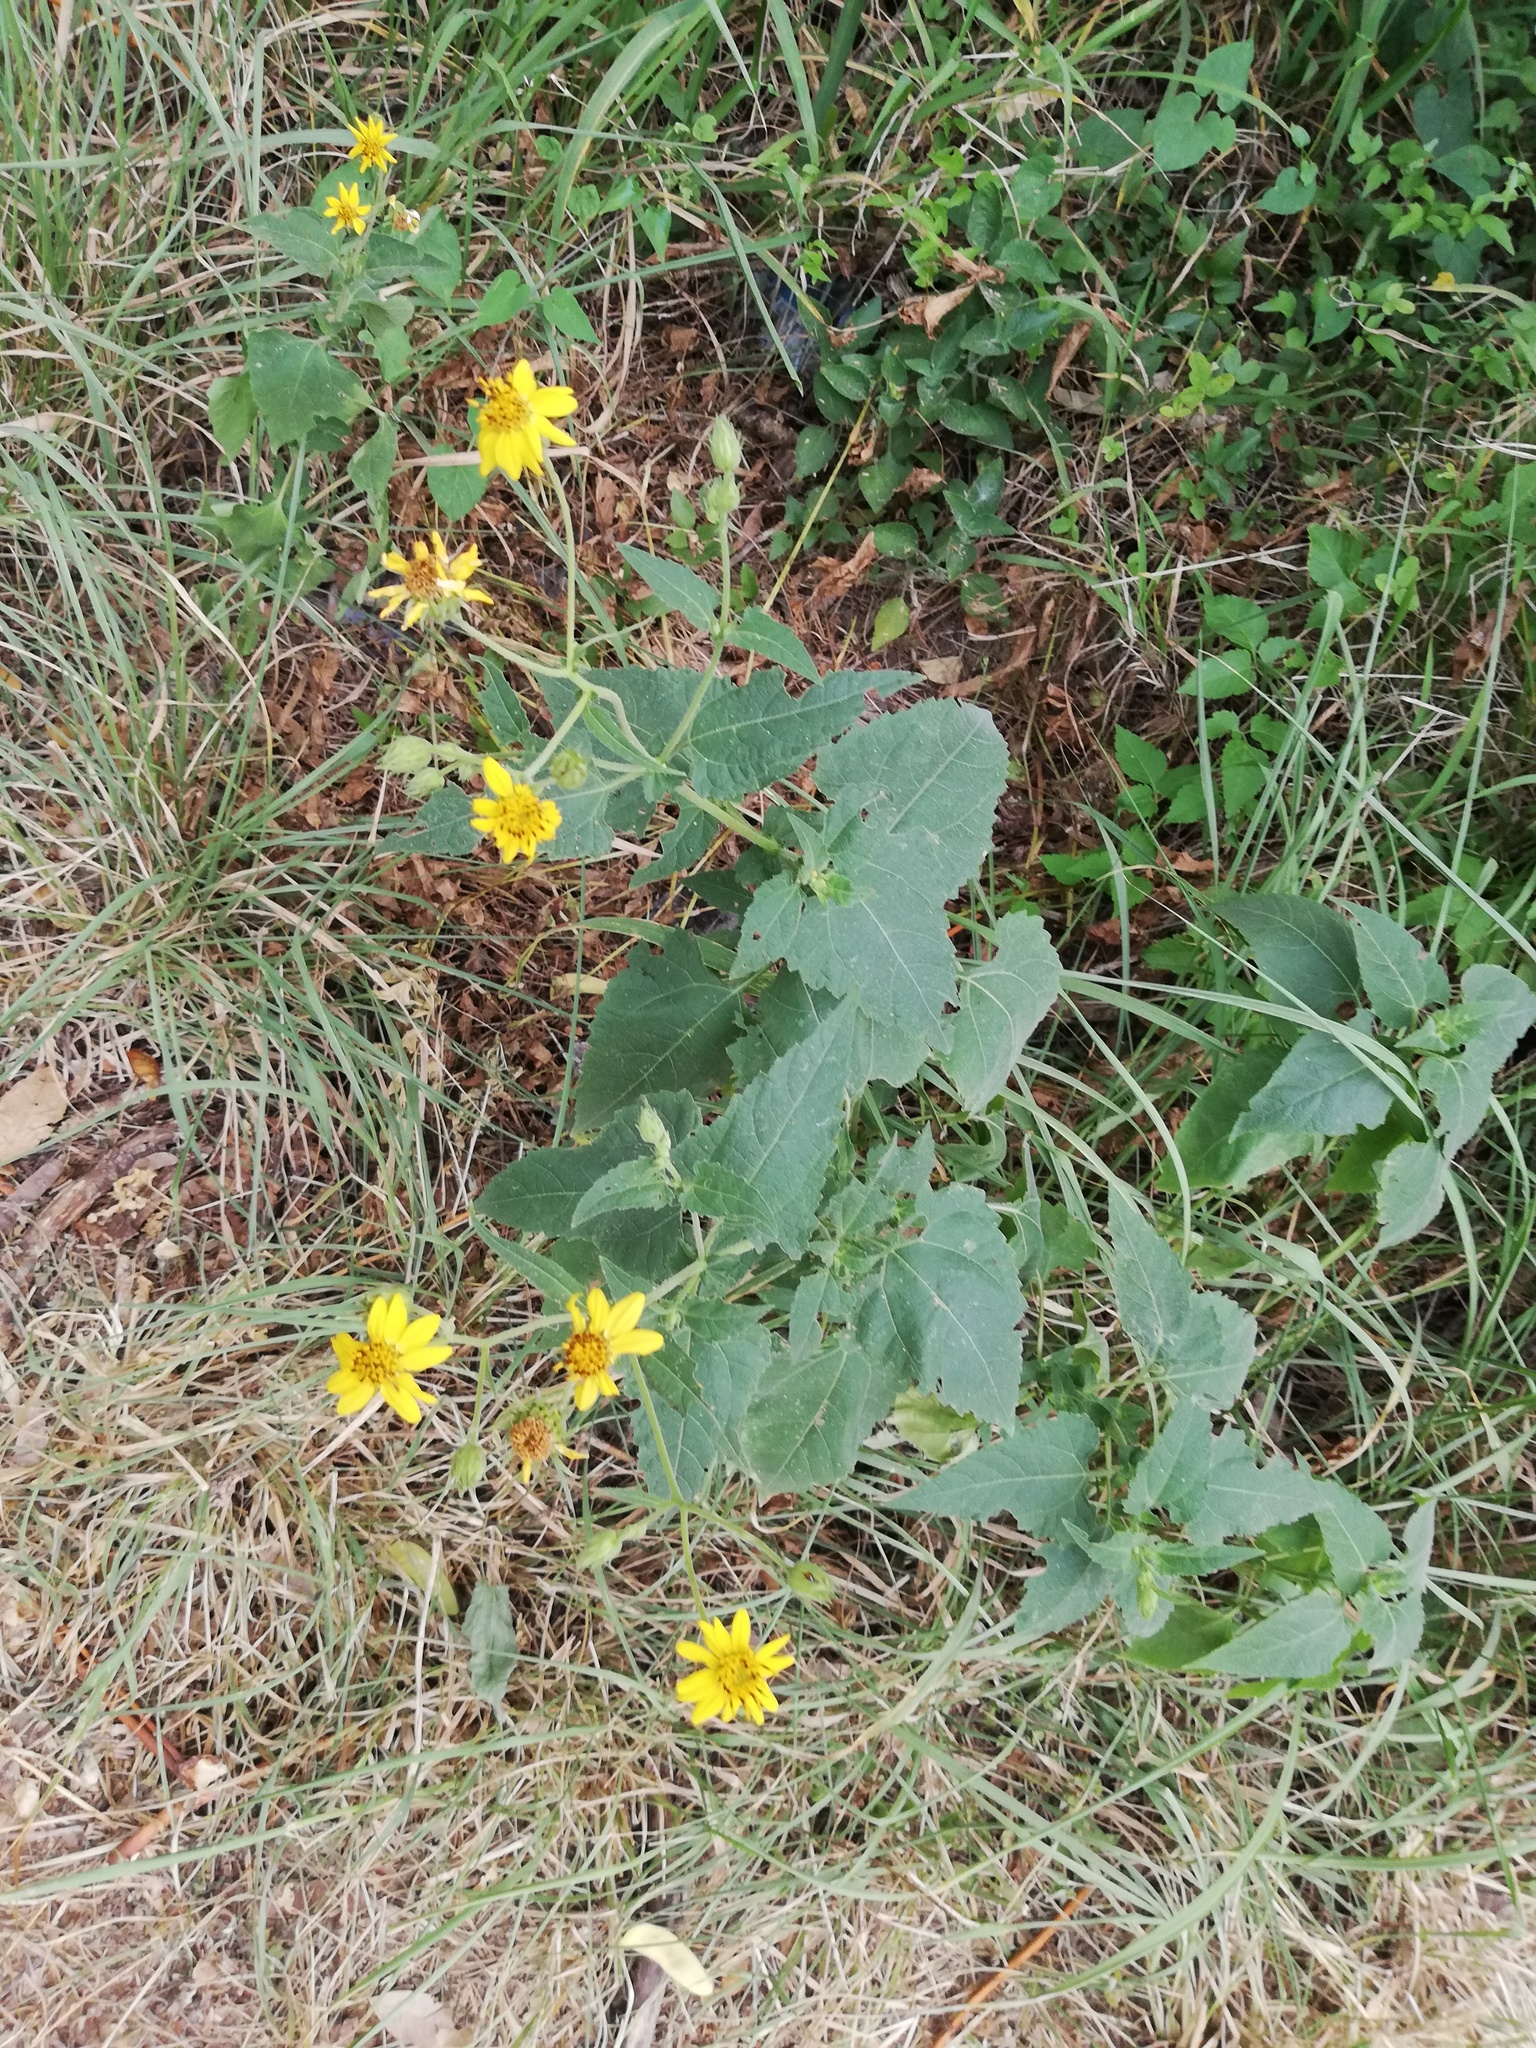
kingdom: Plantae
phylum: Tracheophyta
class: Magnoliopsida
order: Asterales
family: Asteraceae
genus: Viguiera
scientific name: Viguiera dentata
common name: Toothleaf
